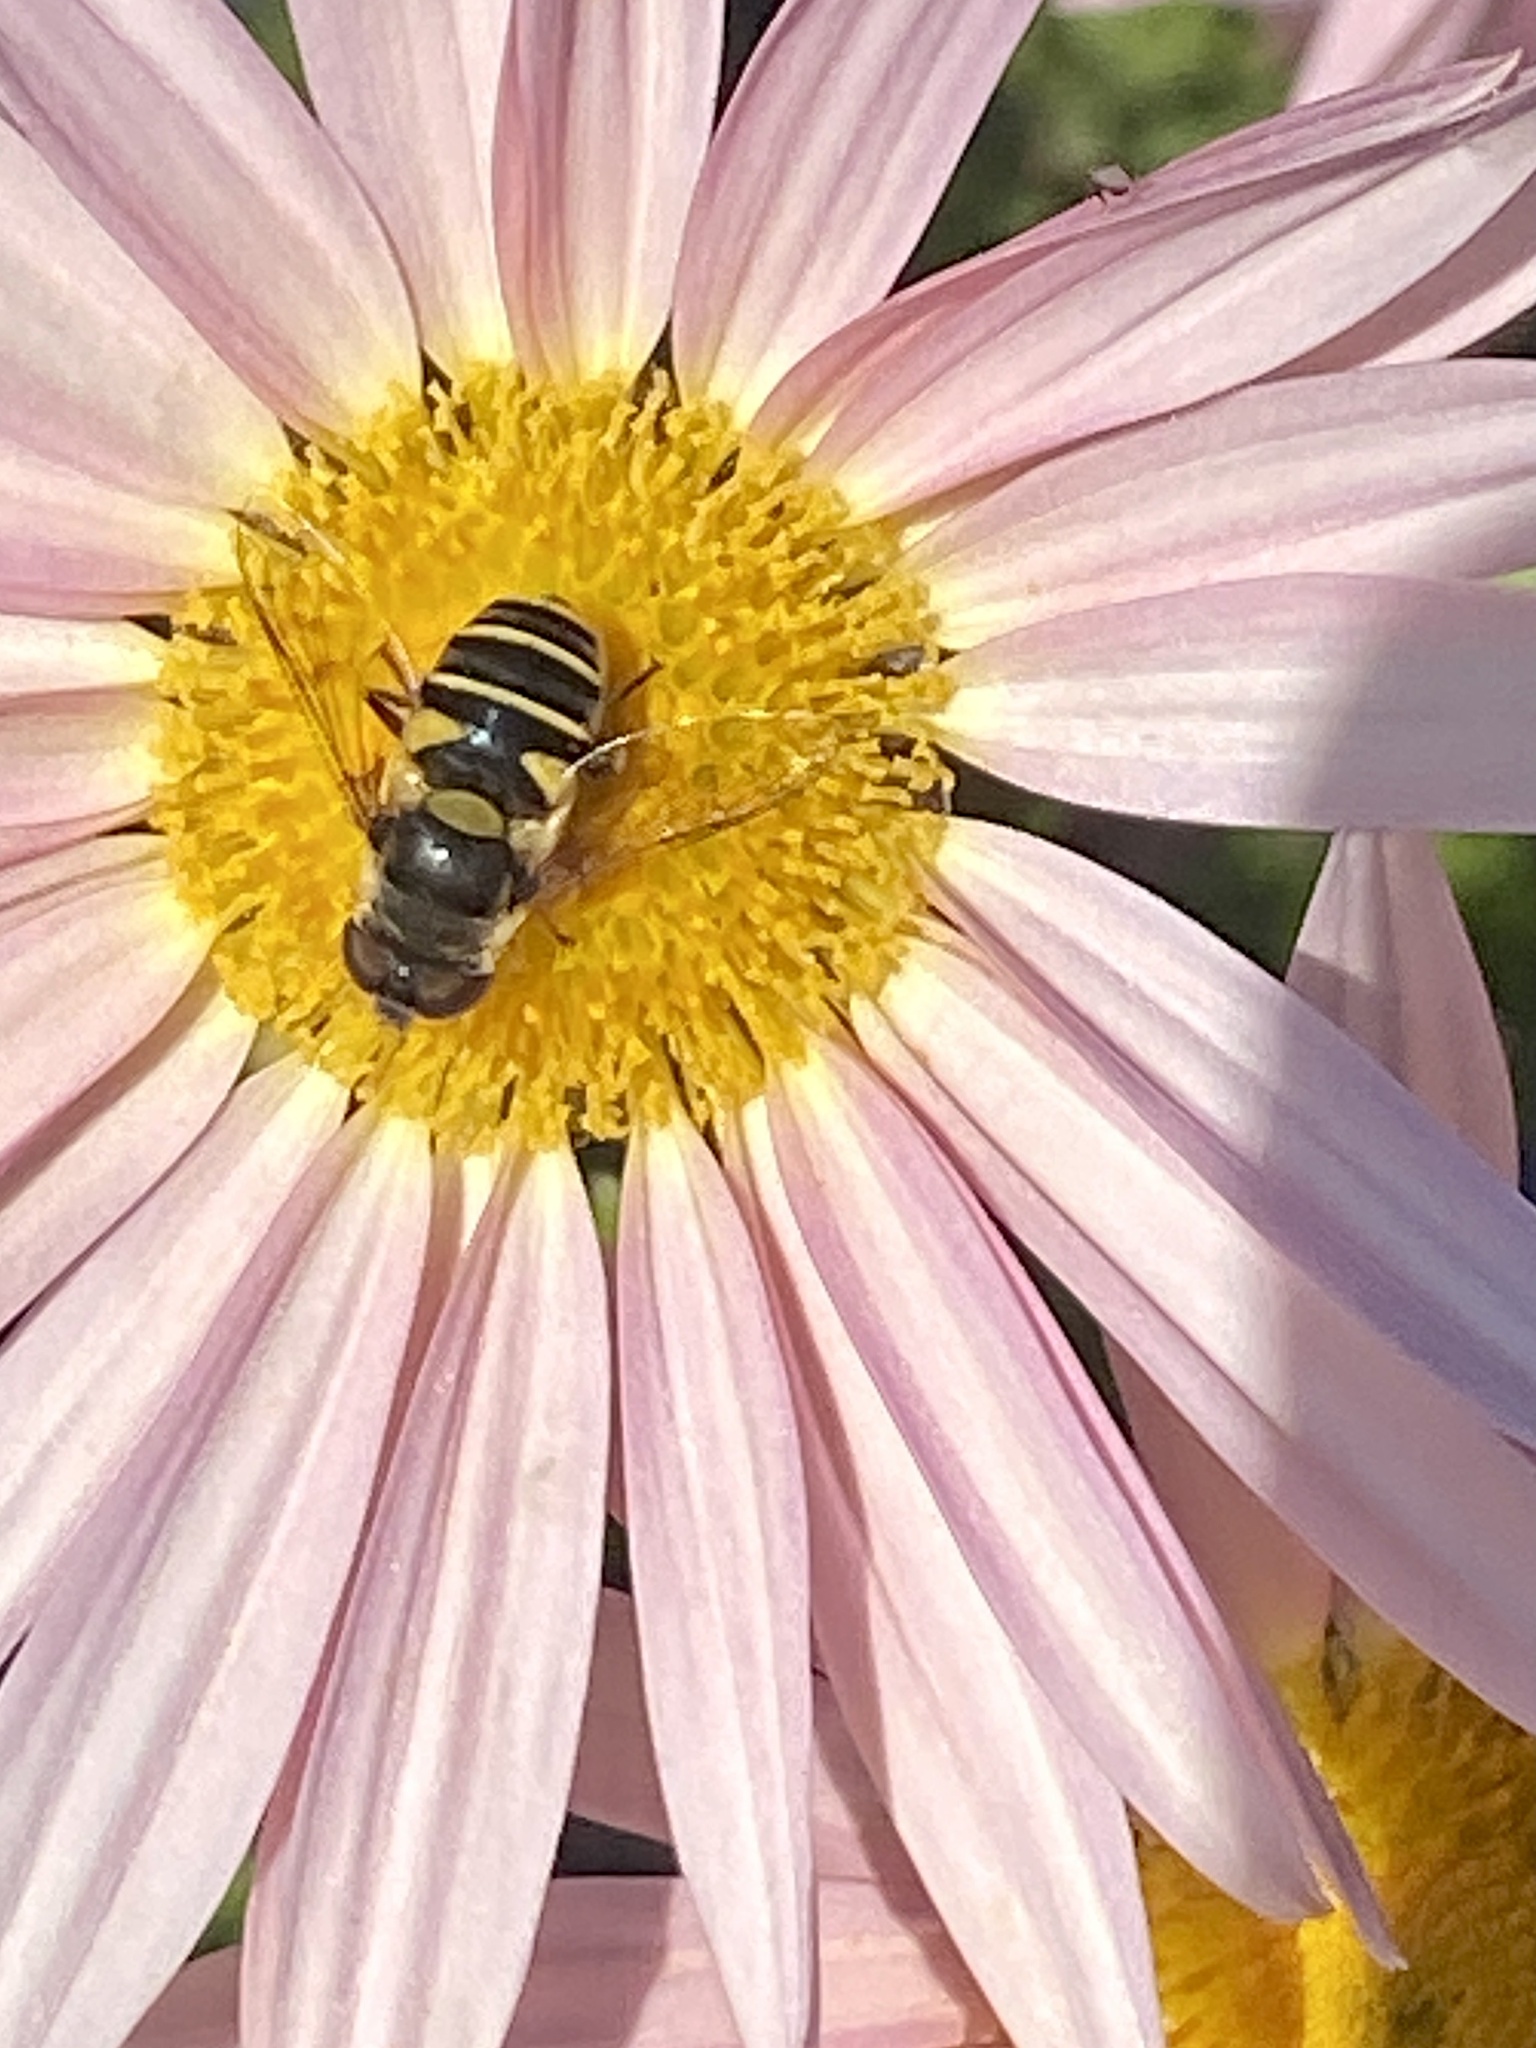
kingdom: Animalia
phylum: Arthropoda
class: Insecta
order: Diptera
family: Syrphidae
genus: Eristalis
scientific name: Eristalis transversa
